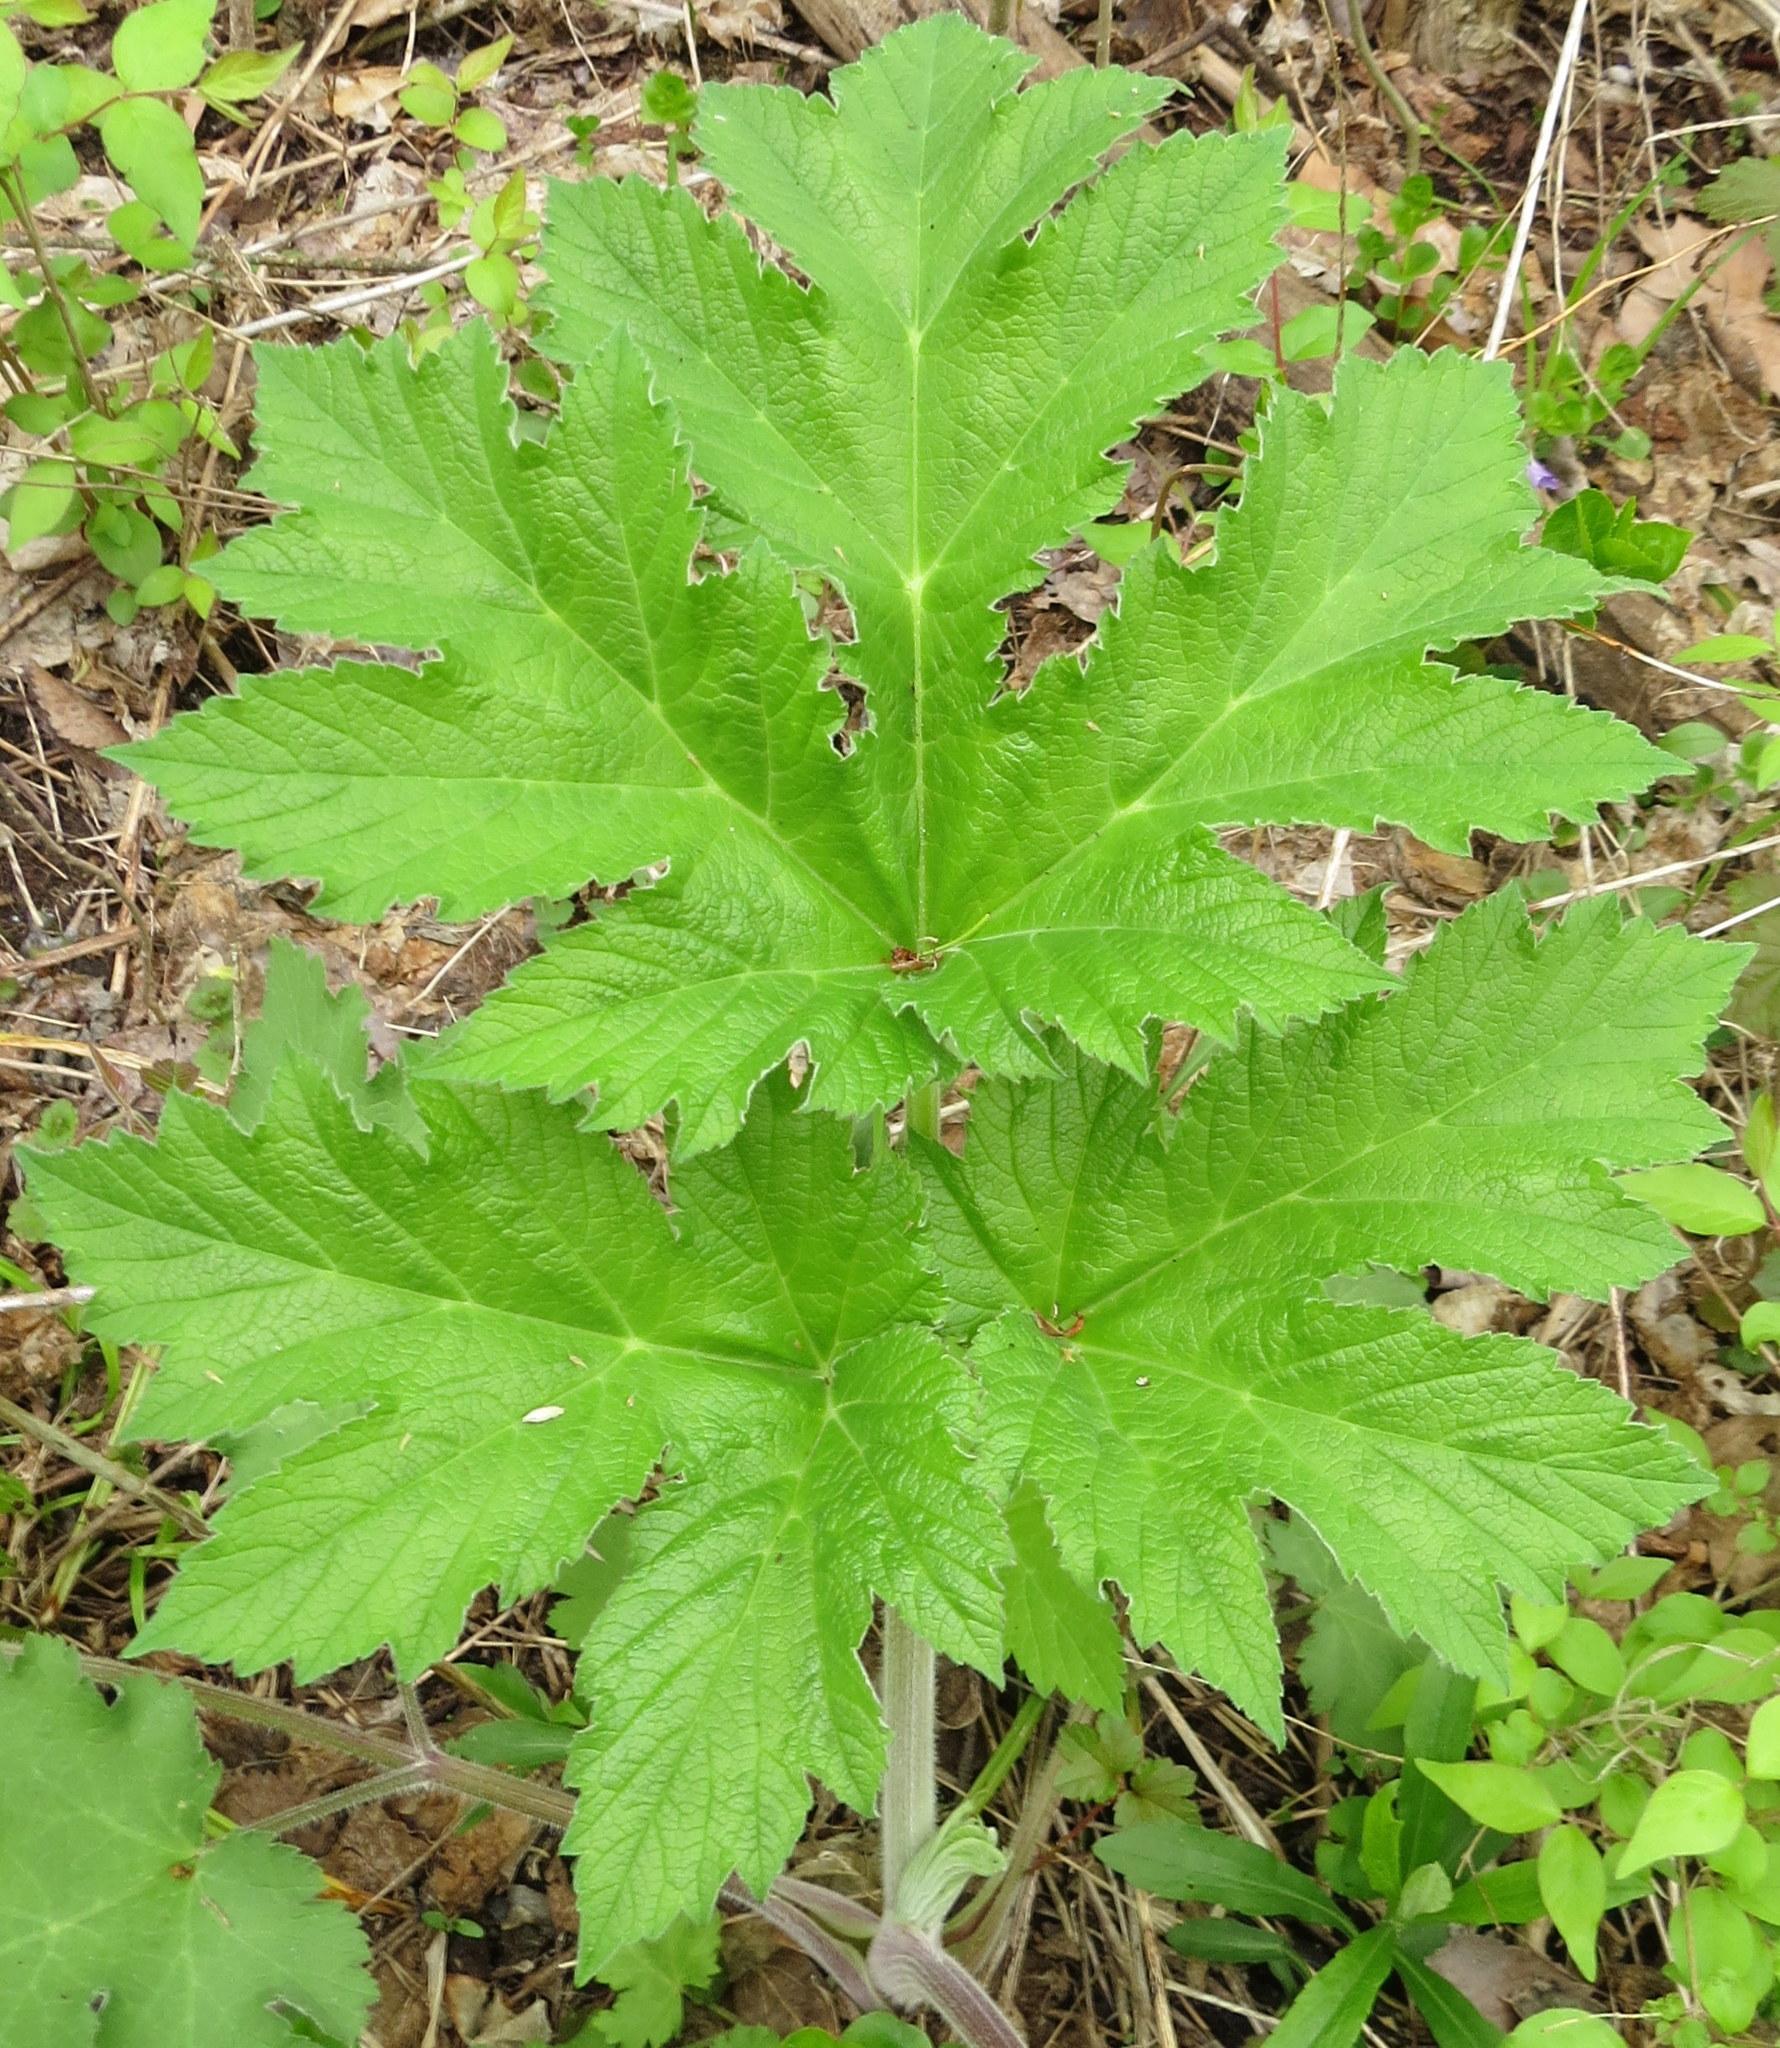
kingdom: Plantae
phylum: Tracheophyta
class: Magnoliopsida
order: Apiales
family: Apiaceae
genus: Heracleum
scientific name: Heracleum maximum
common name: American cow parsnip
